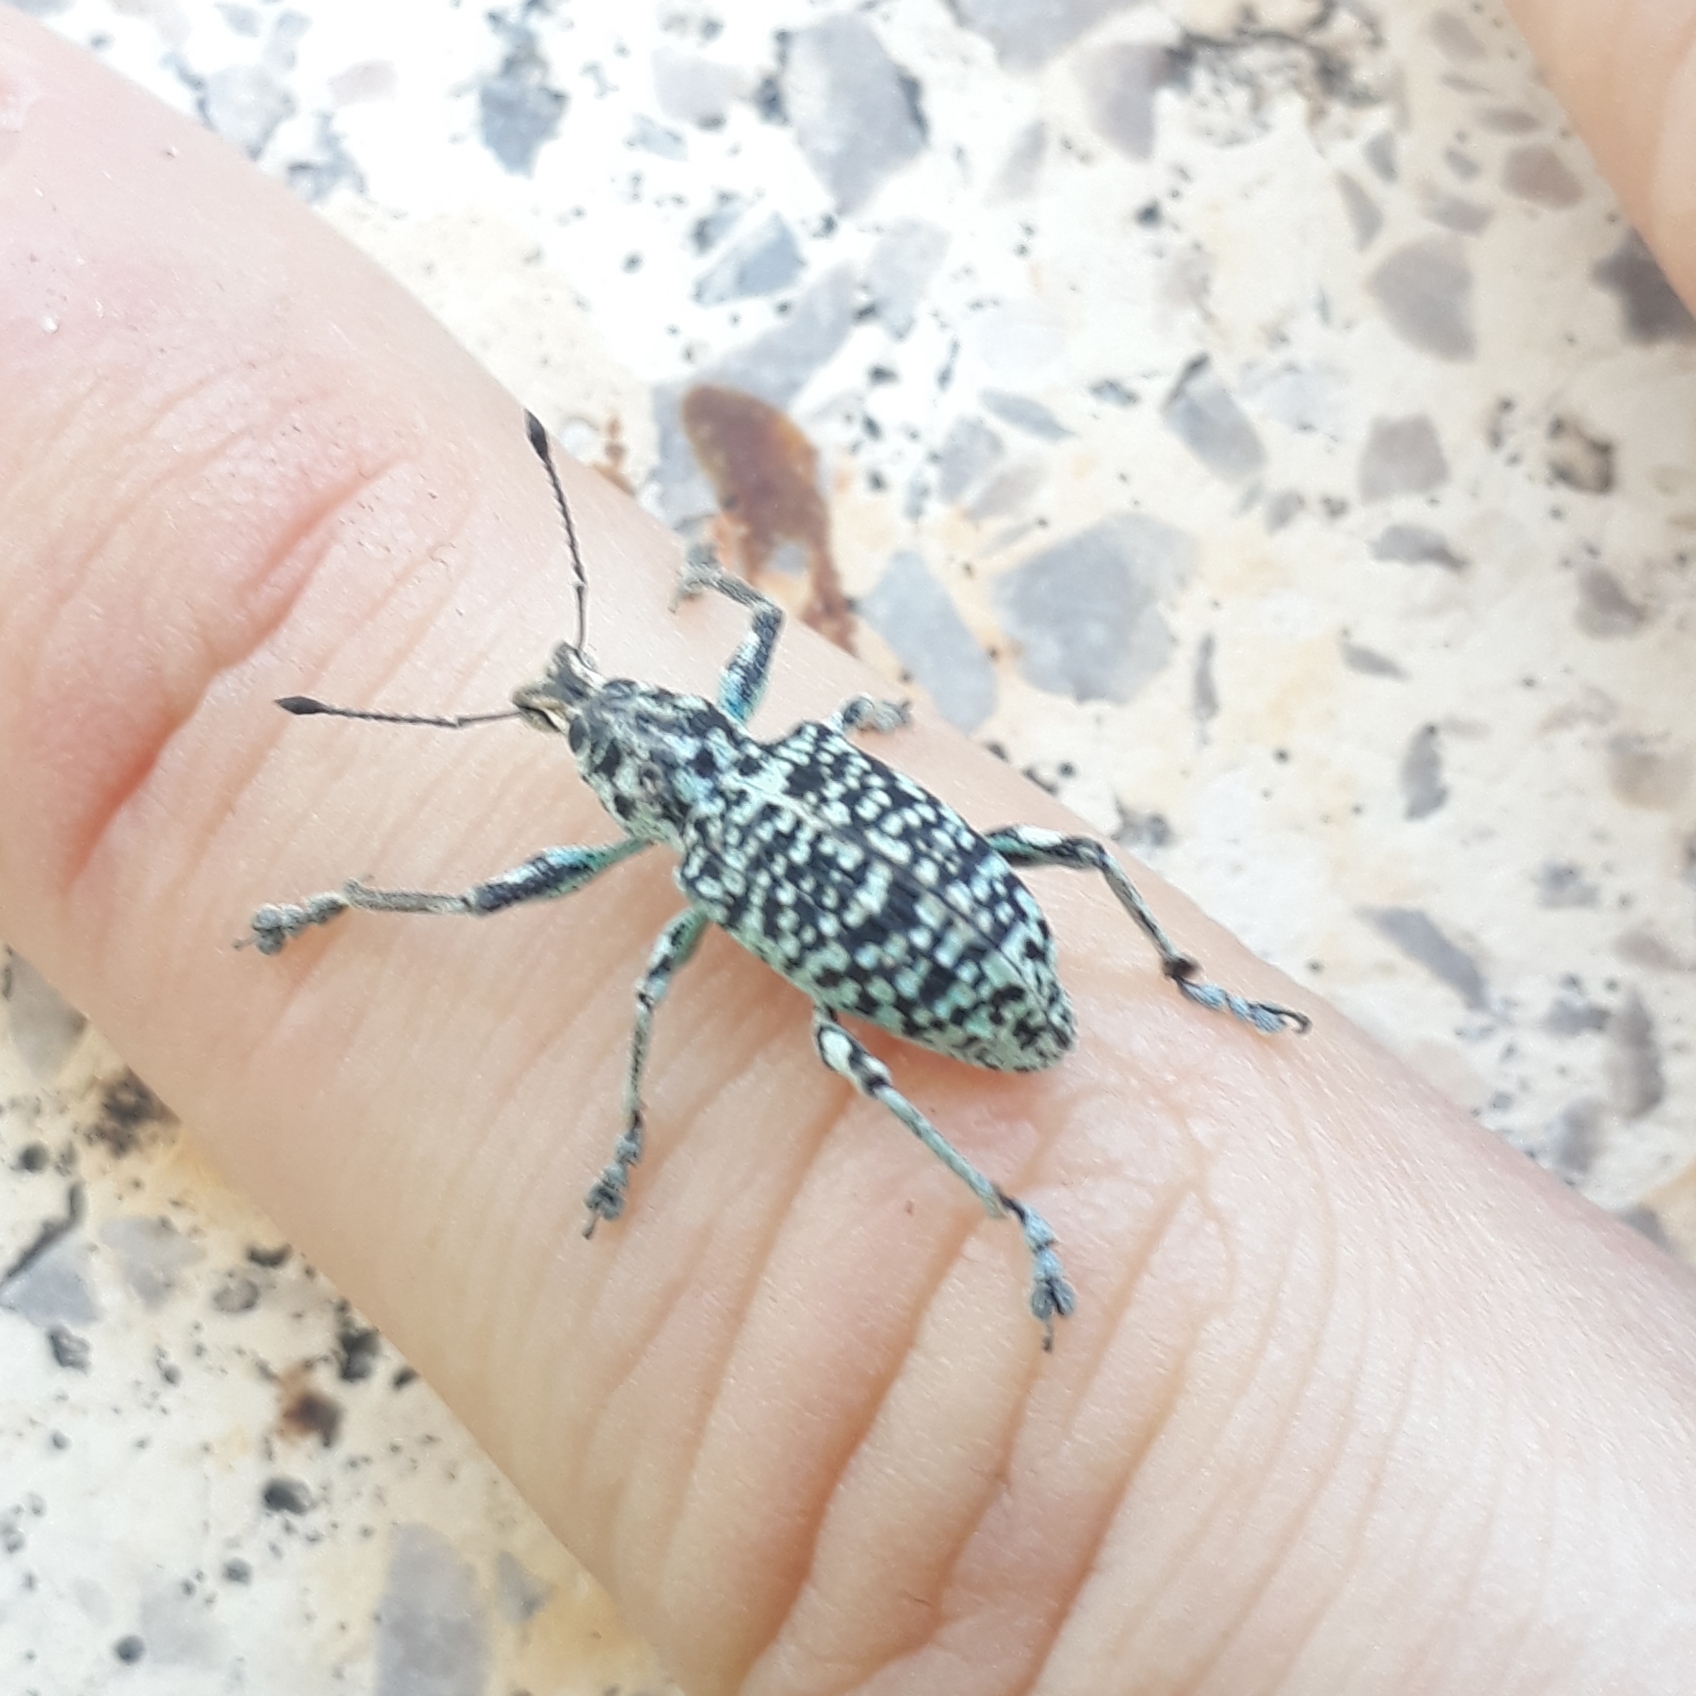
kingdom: Animalia
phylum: Arthropoda
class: Insecta
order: Coleoptera
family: Curculionidae
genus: Rhigus
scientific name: Rhigus faldermanni
